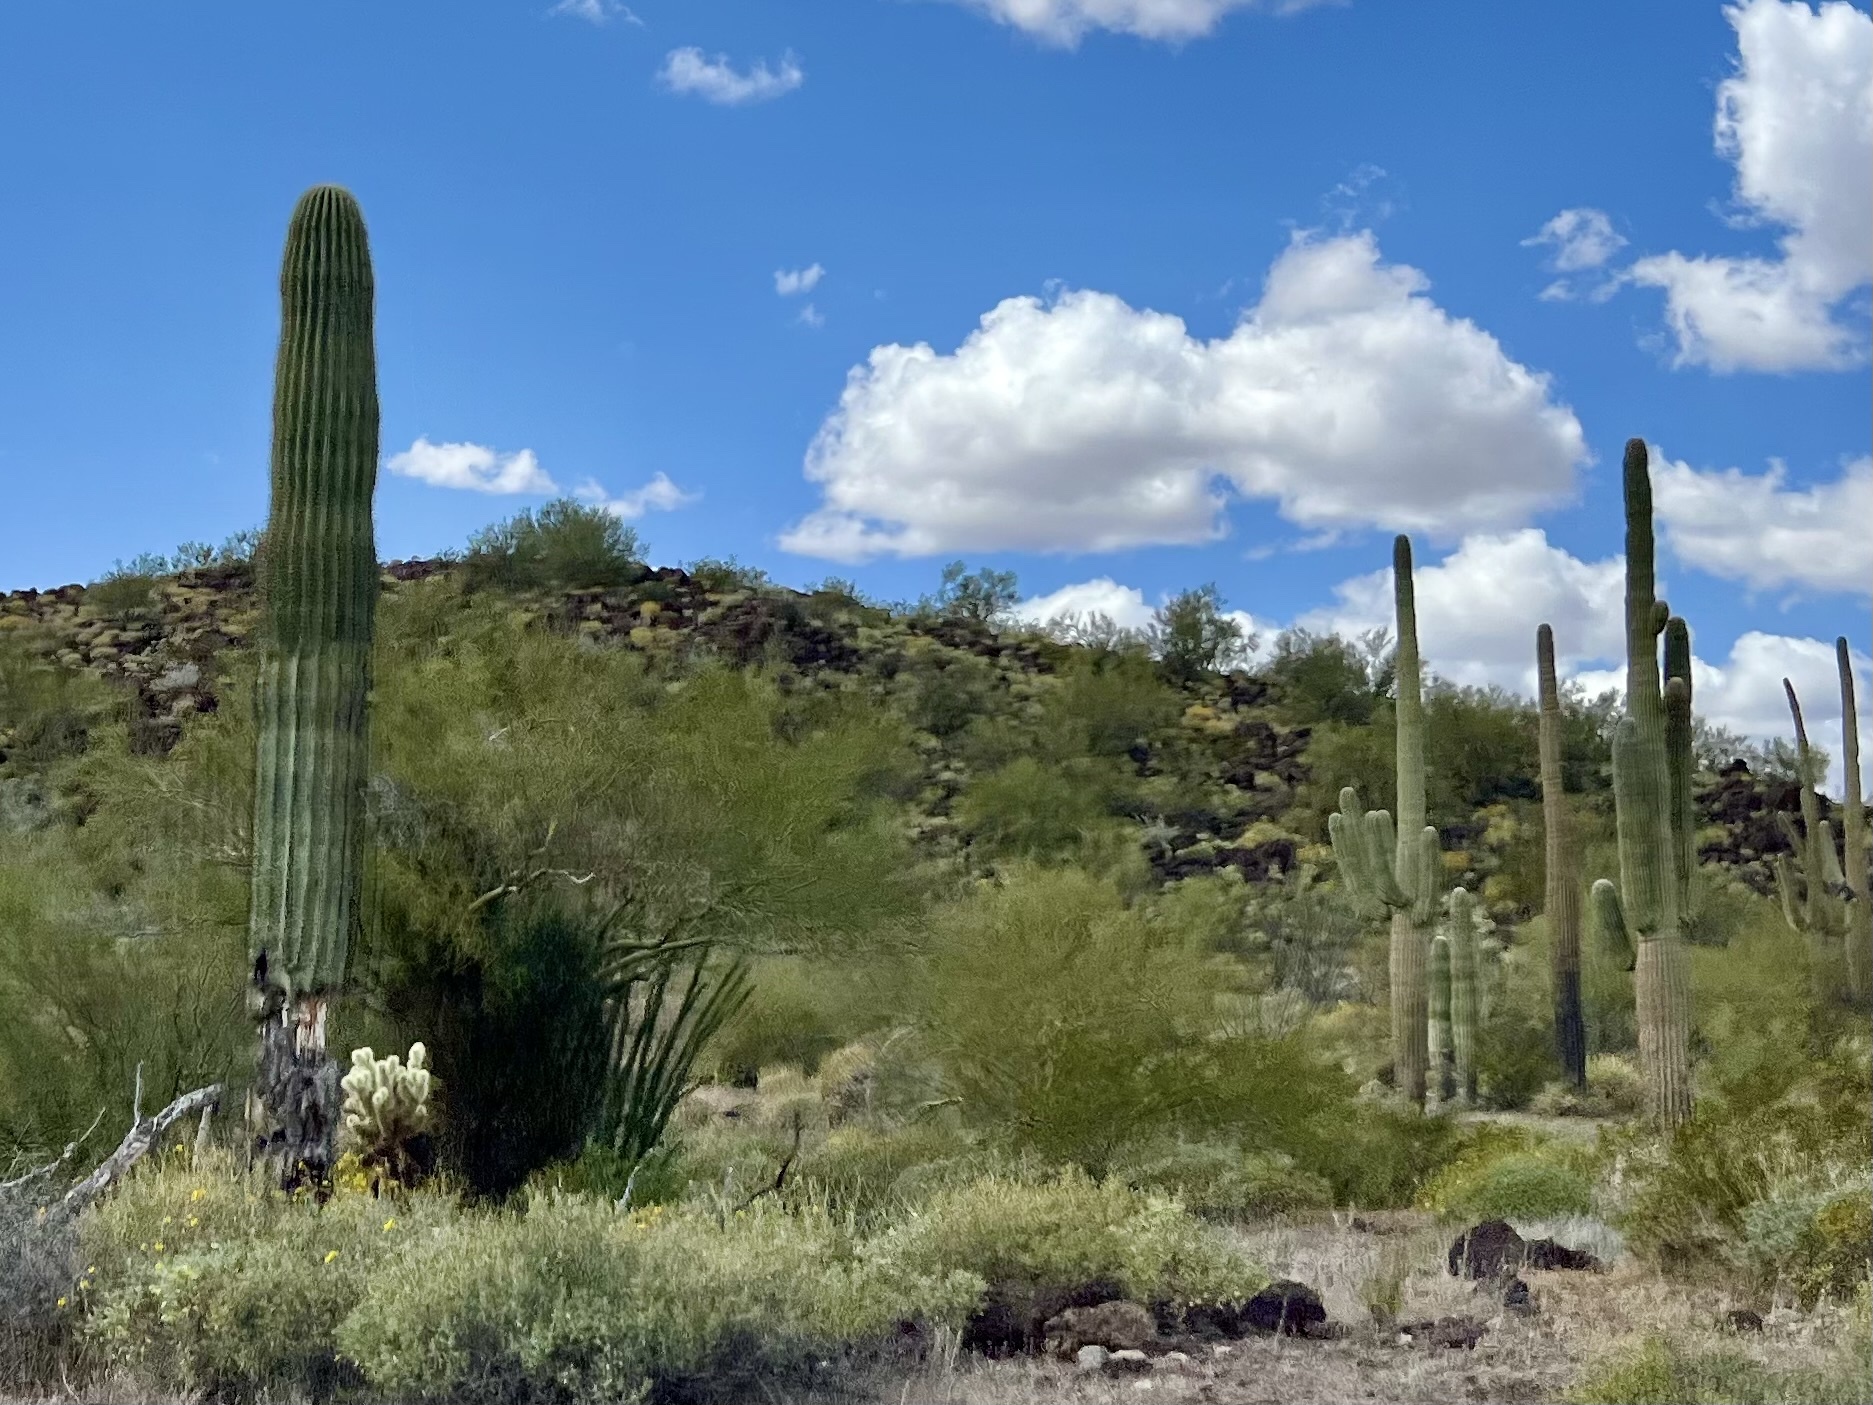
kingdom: Plantae
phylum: Tracheophyta
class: Magnoliopsida
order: Caryophyllales
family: Cactaceae
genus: Carnegiea
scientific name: Carnegiea gigantea
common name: Saguaro
